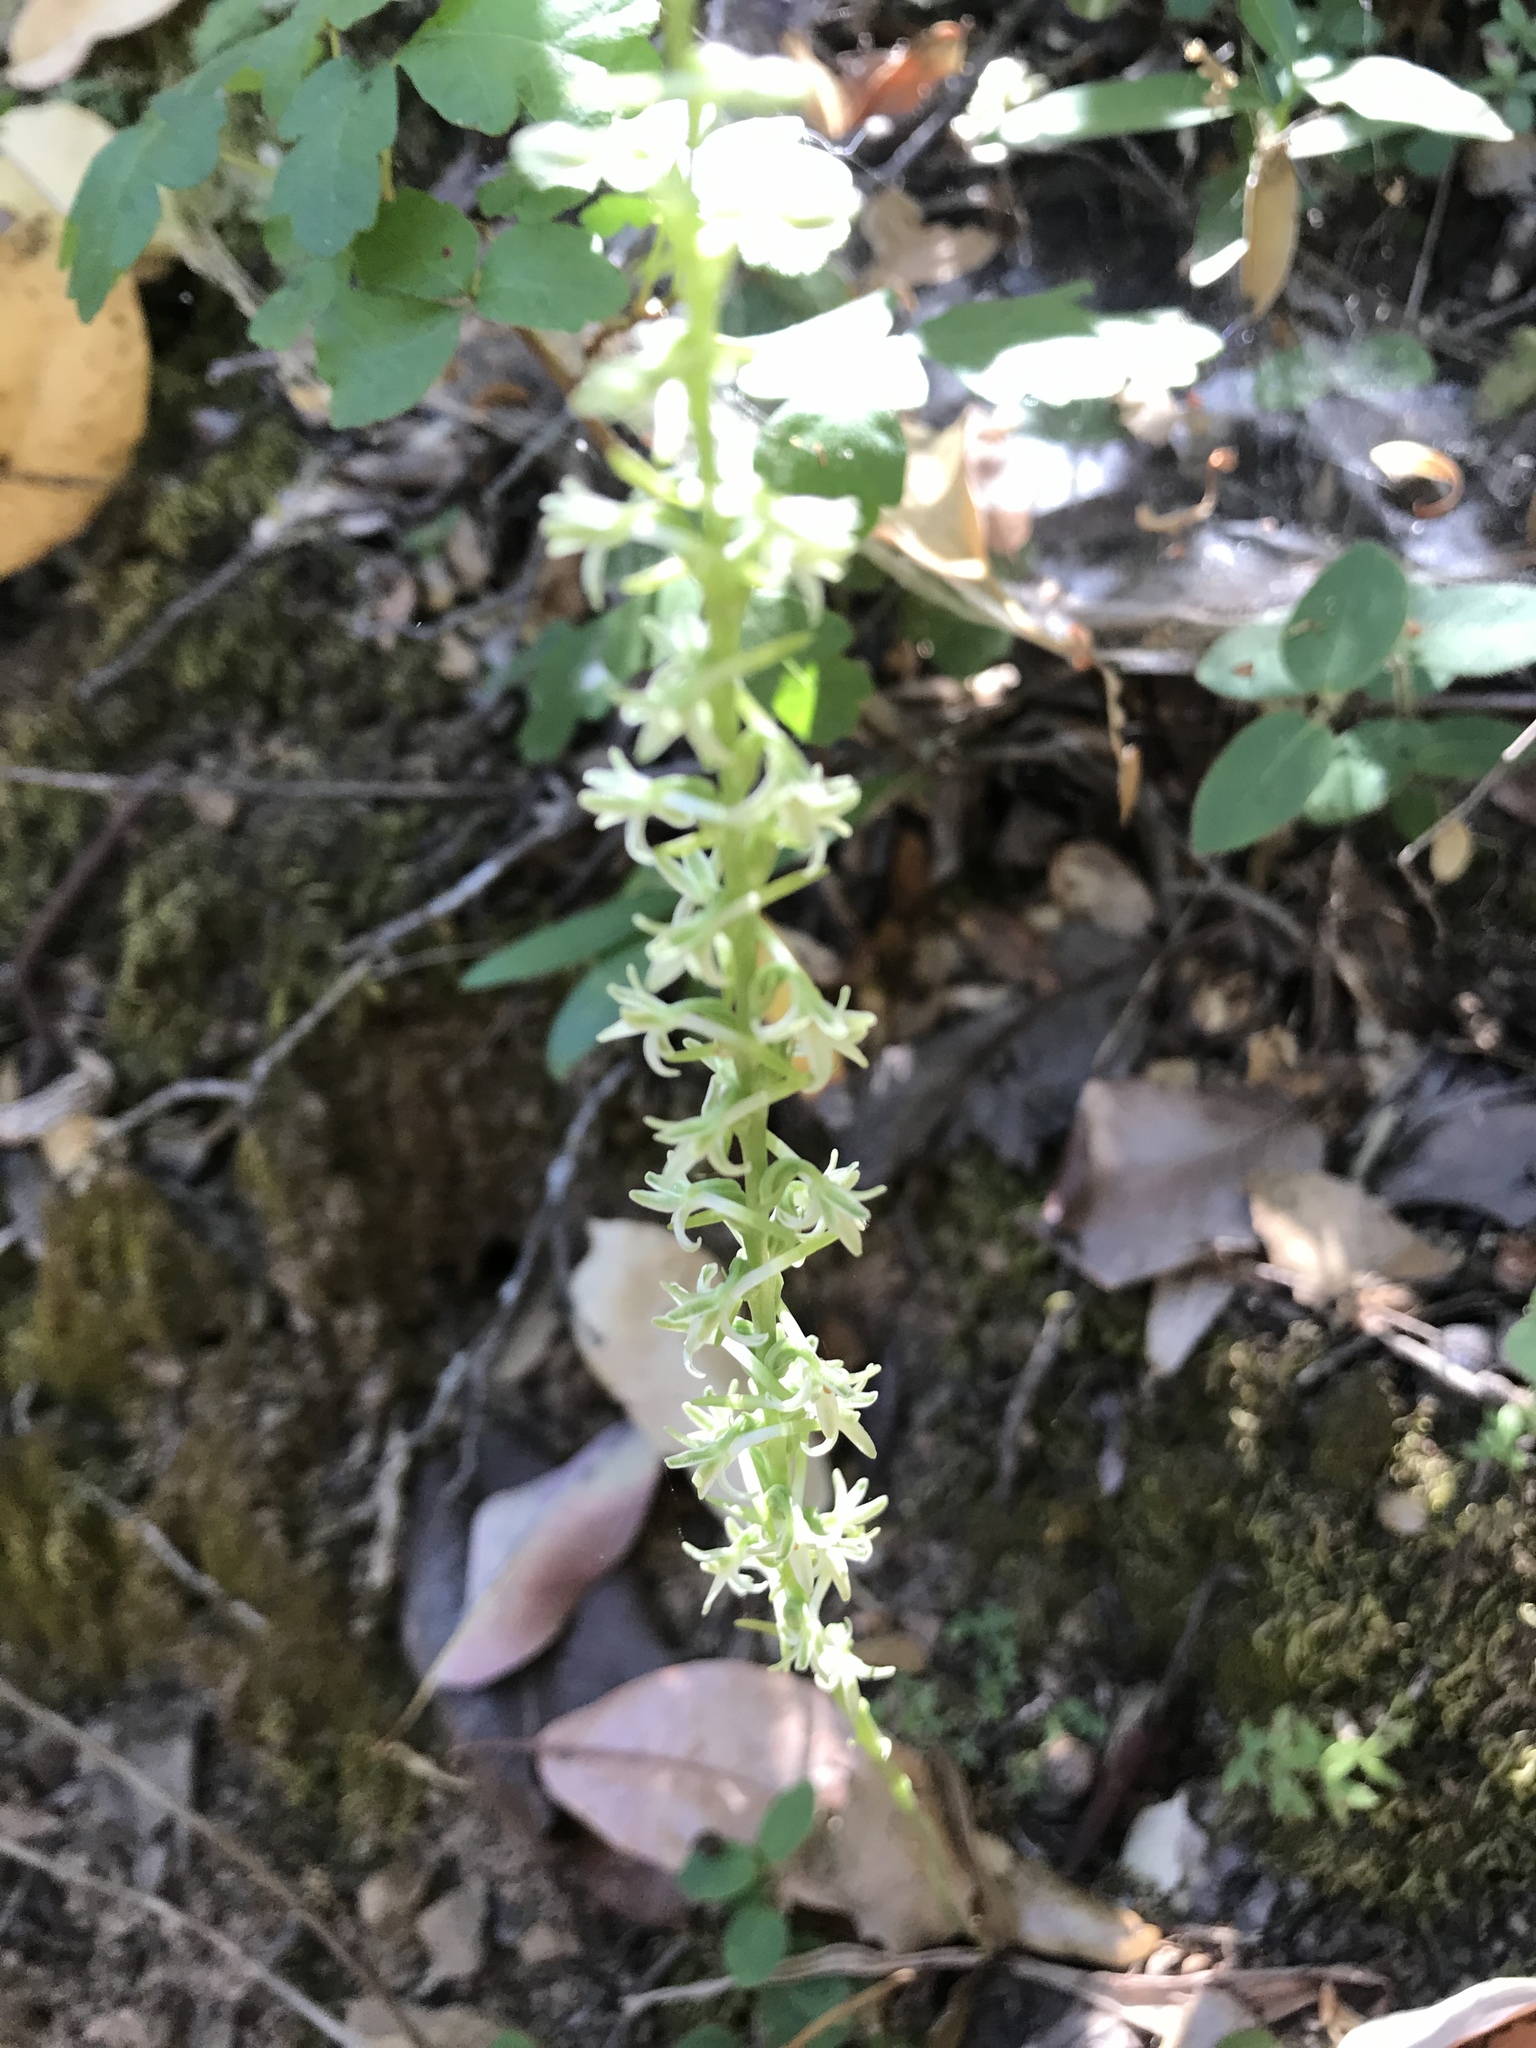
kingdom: Plantae
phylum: Tracheophyta
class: Liliopsida
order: Asparagales
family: Orchidaceae
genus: Platanthera
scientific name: Platanthera transversa
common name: Royal rein orchid
